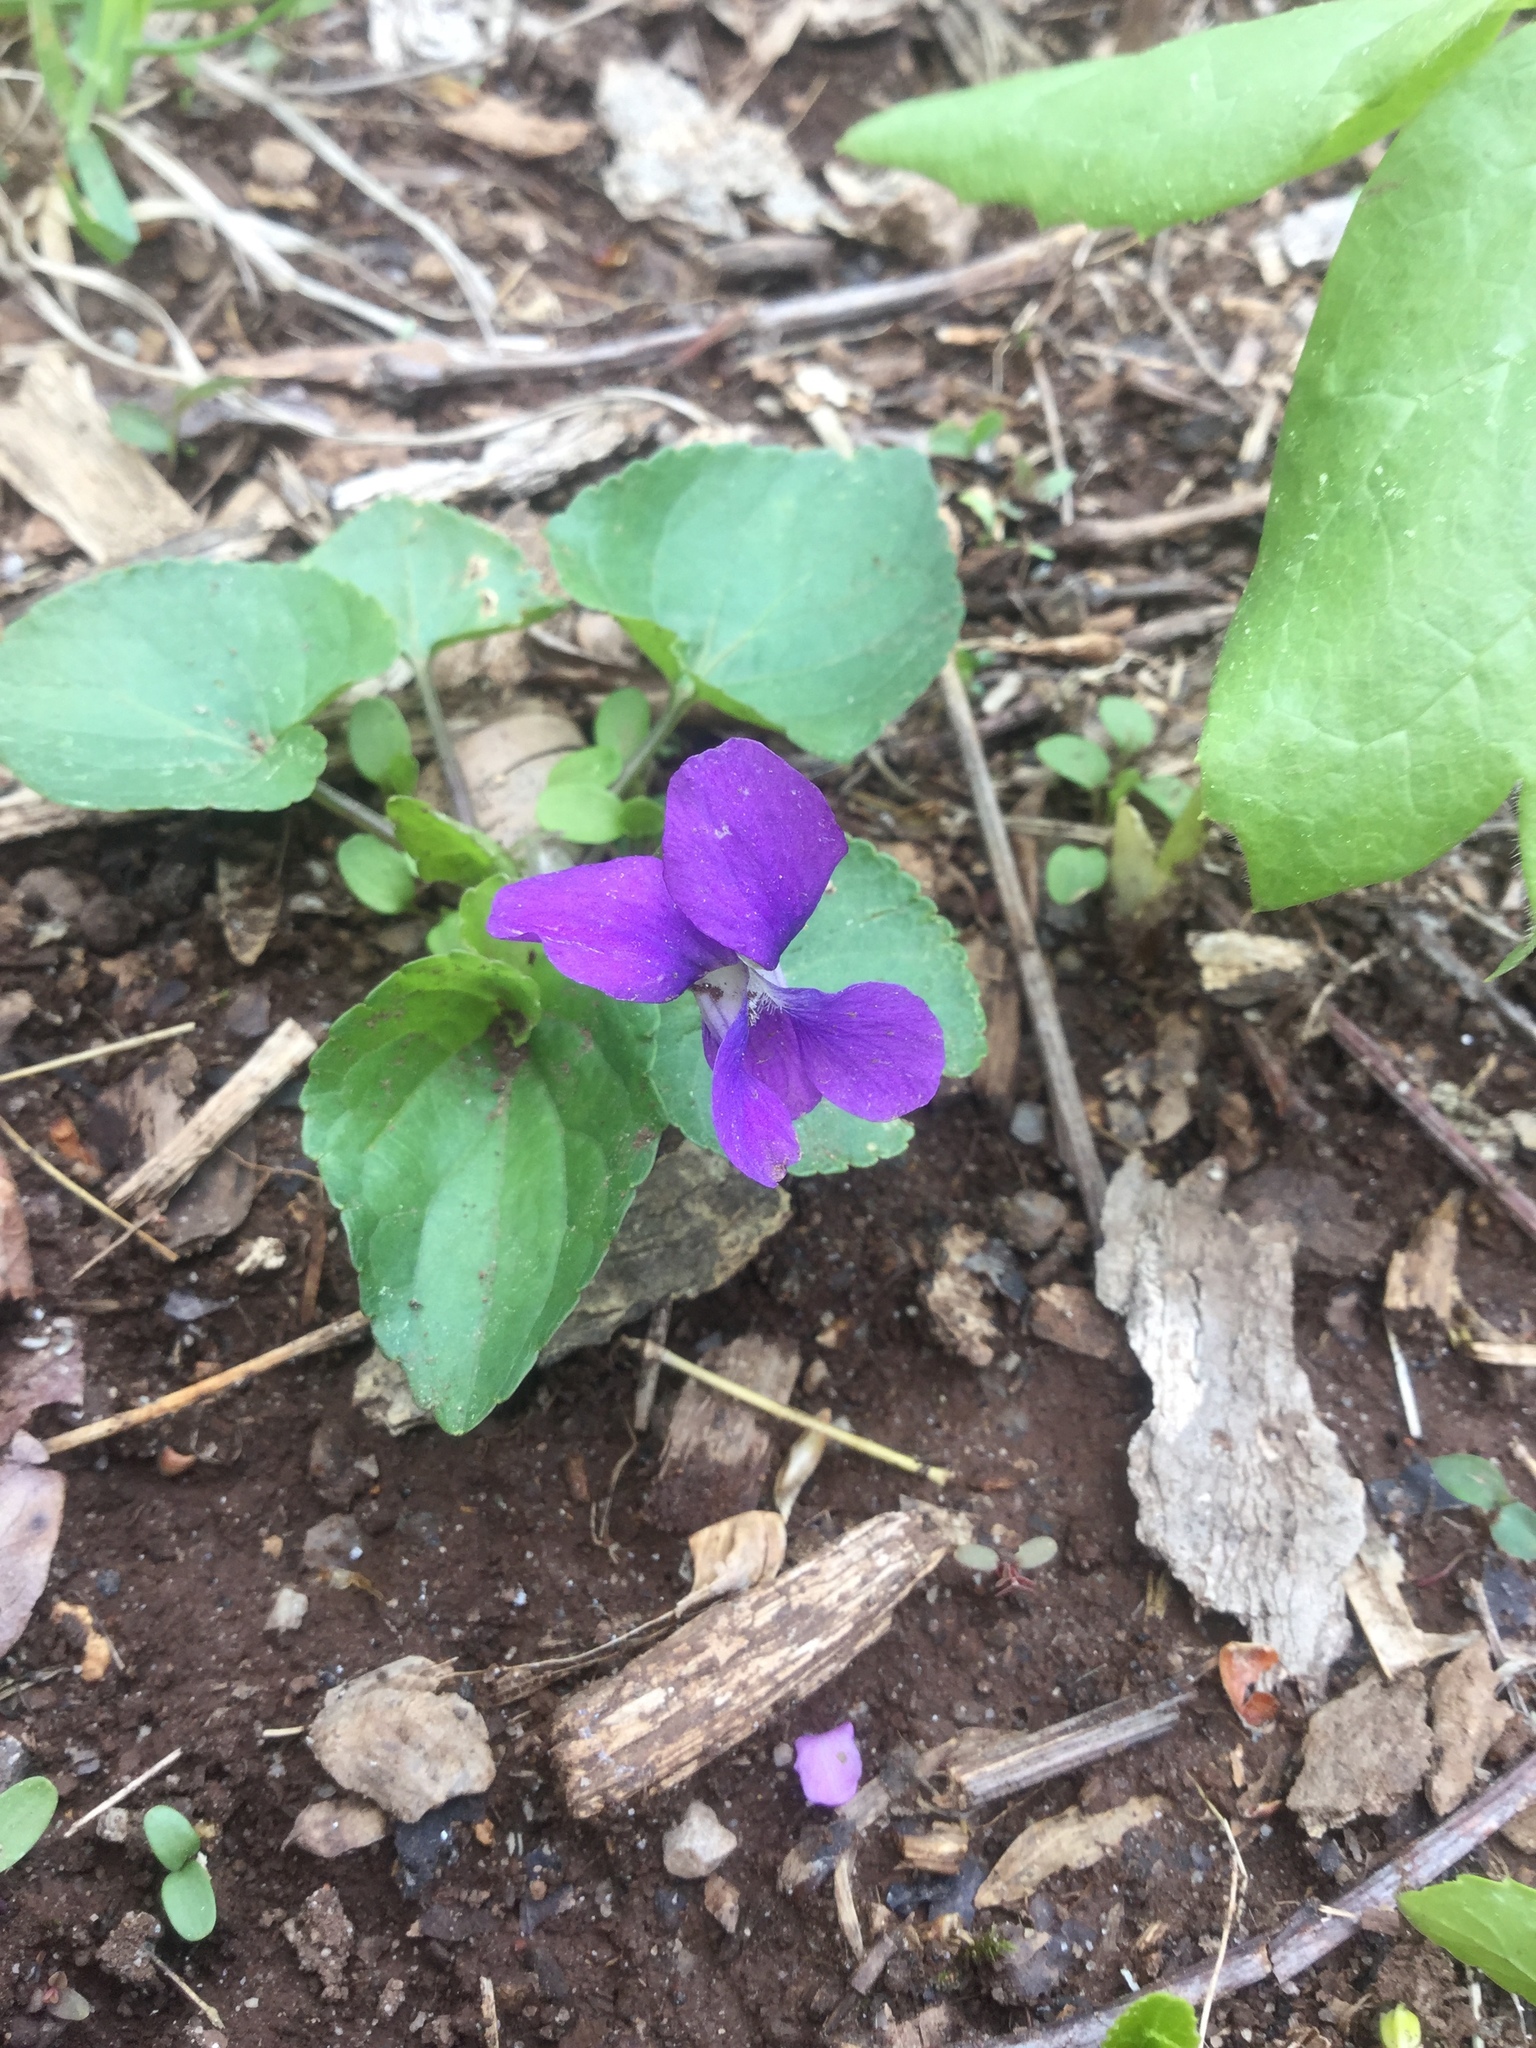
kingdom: Plantae
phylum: Tracheophyta
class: Magnoliopsida
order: Malpighiales
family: Violaceae
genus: Viola
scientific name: Viola sororia
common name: Dooryard violet
